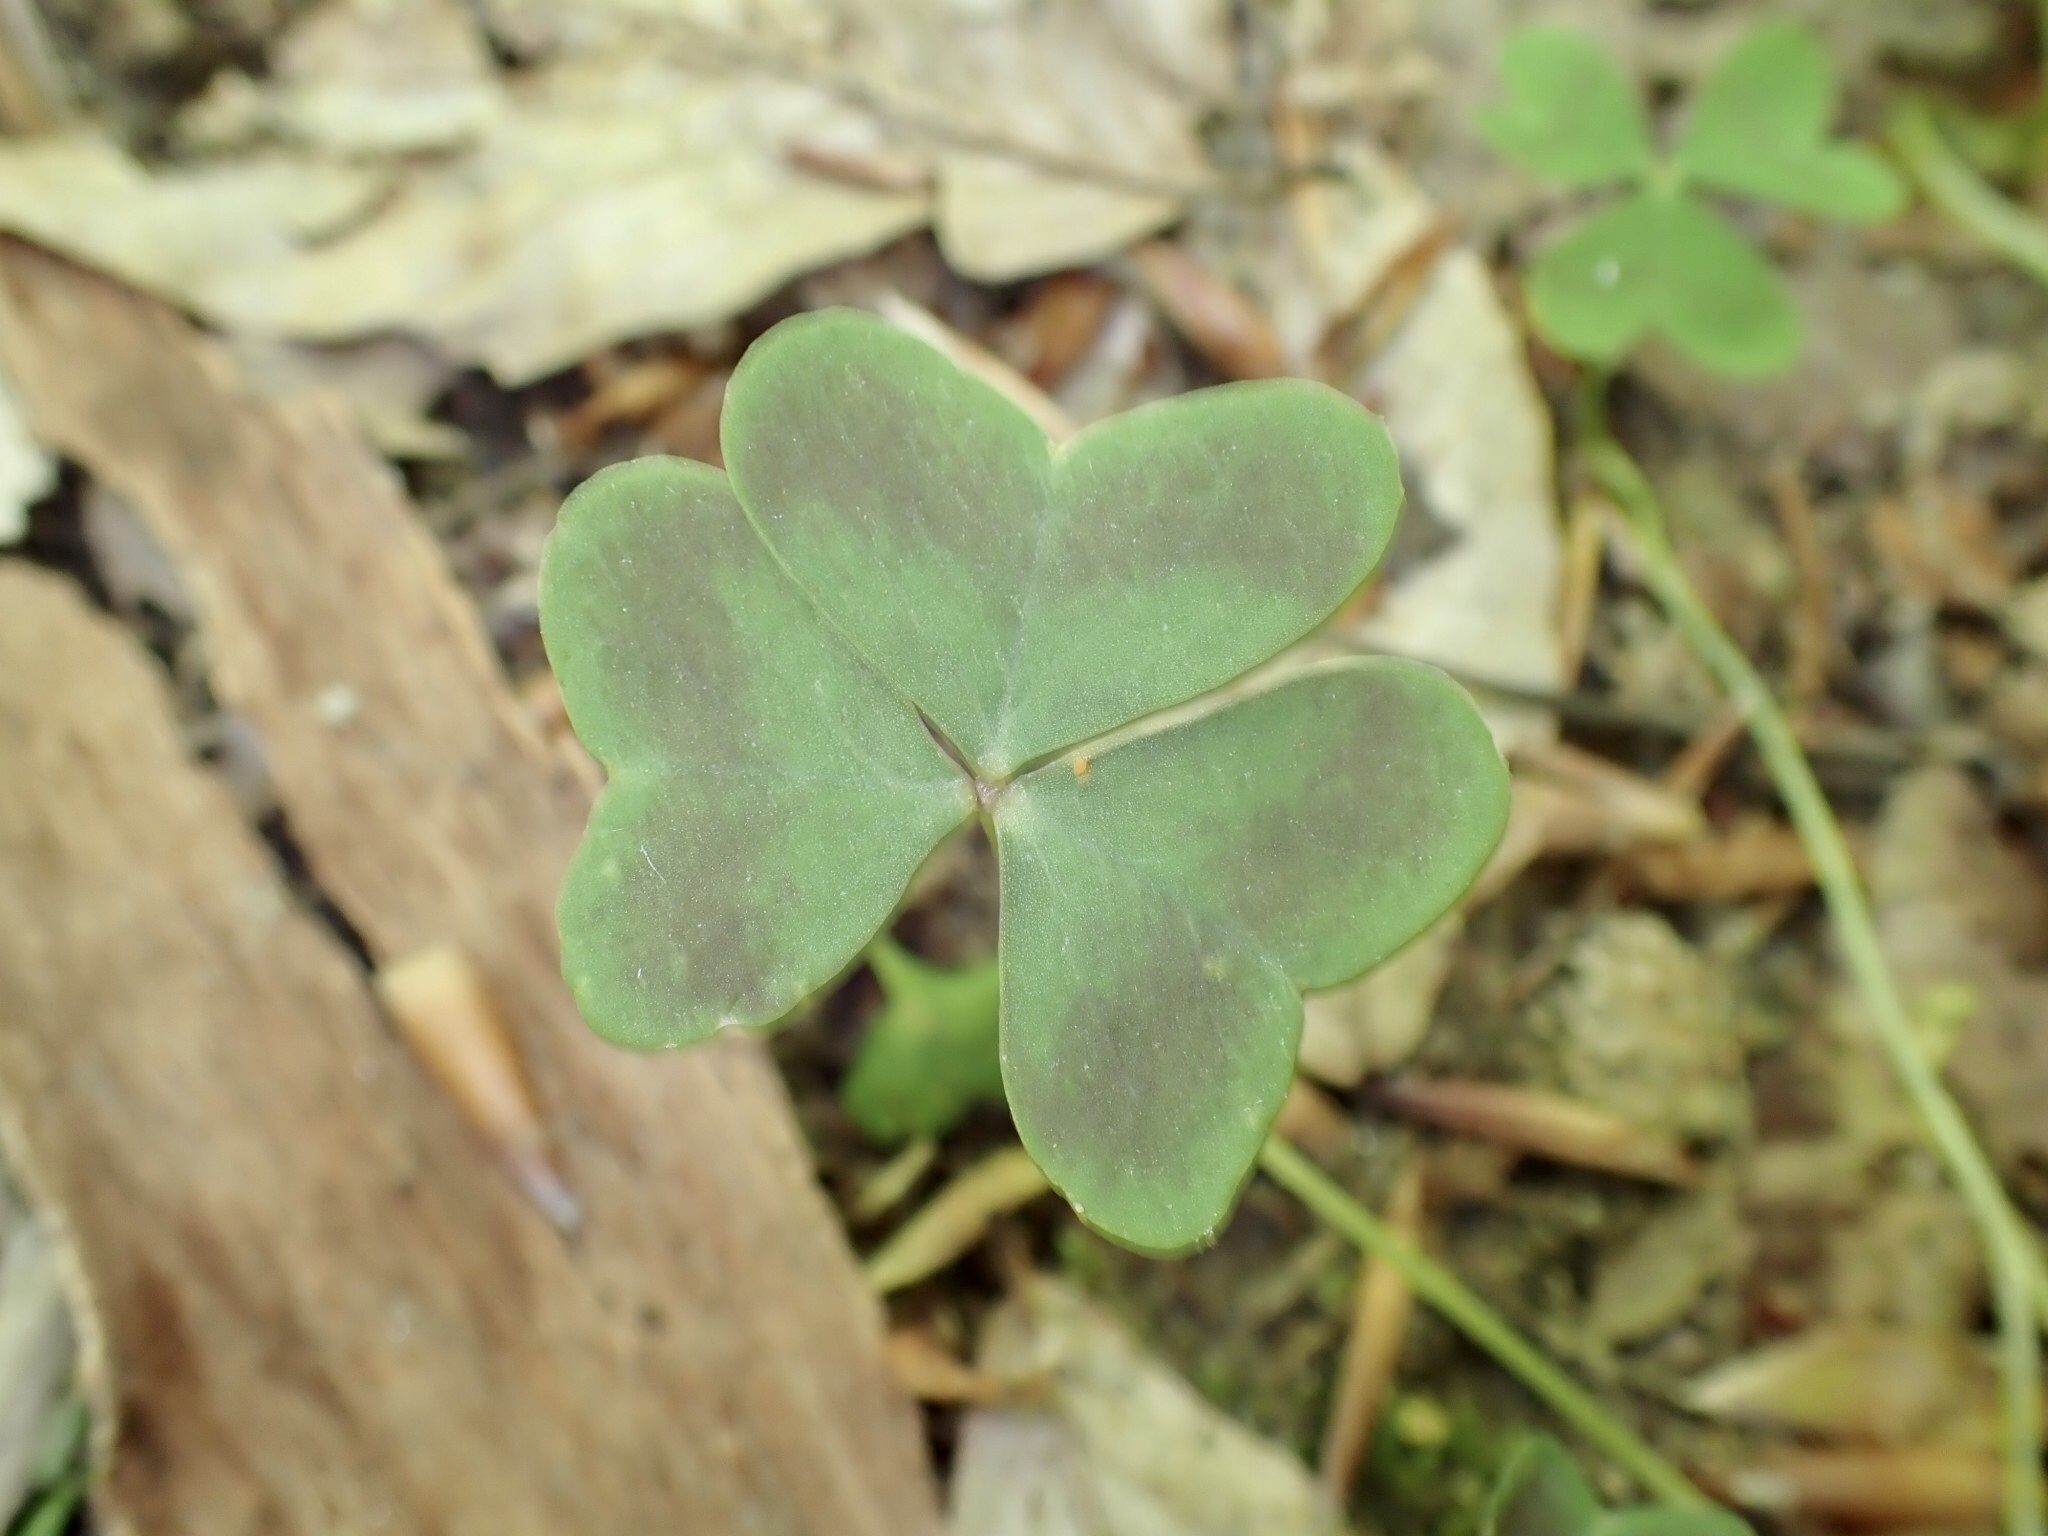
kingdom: Plantae
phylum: Tracheophyta
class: Magnoliopsida
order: Oxalidales
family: Oxalidaceae
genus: Oxalis
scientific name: Oxalis violacea
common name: Violet wood-sorrel
